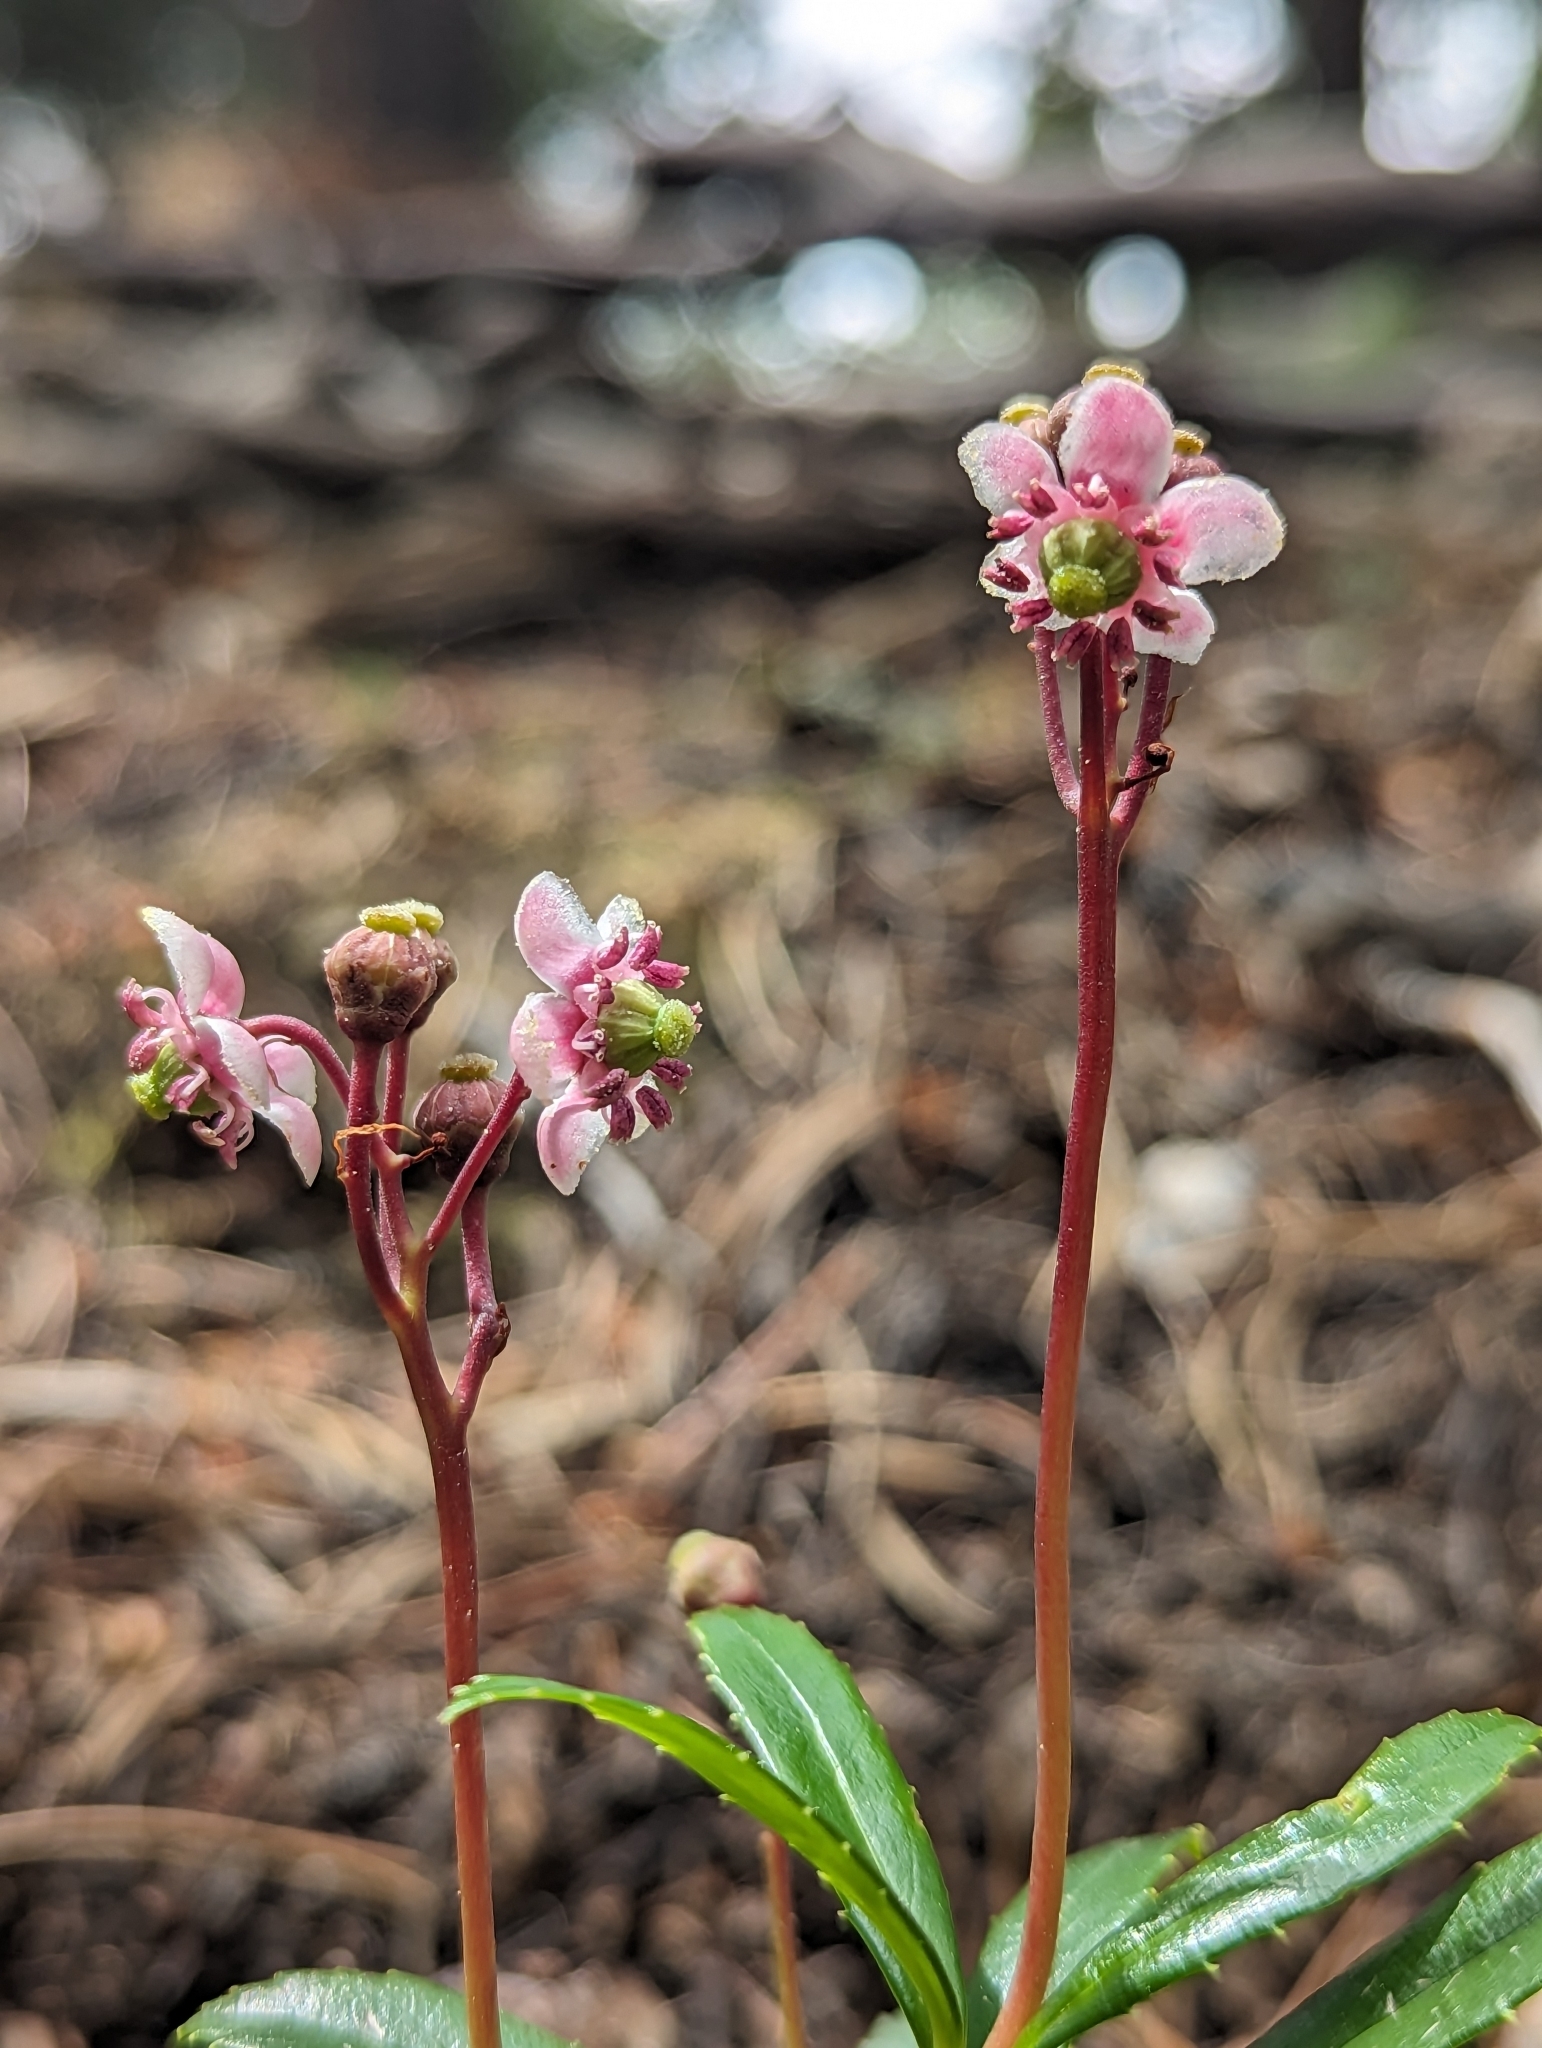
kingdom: Plantae
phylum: Tracheophyta
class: Magnoliopsida
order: Ericales
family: Ericaceae
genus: Chimaphila
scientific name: Chimaphila umbellata
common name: Pipsissewa
